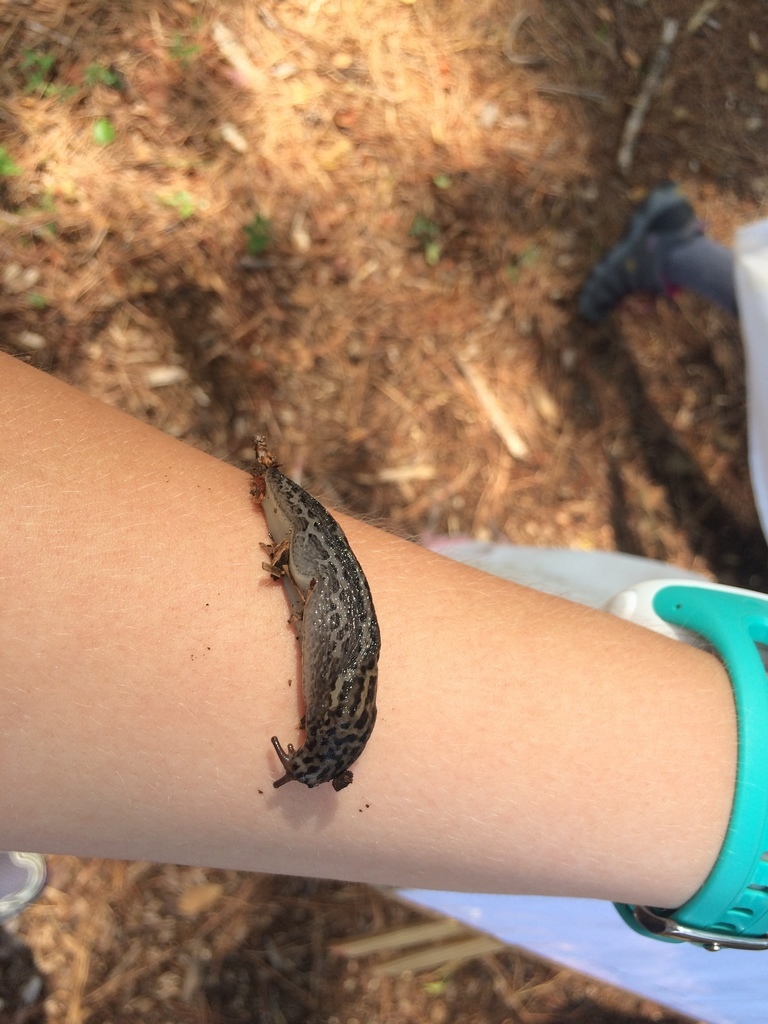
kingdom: Animalia
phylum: Mollusca
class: Gastropoda
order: Stylommatophora
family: Limacidae
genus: Limax
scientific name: Limax maximus
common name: Great grey slug
